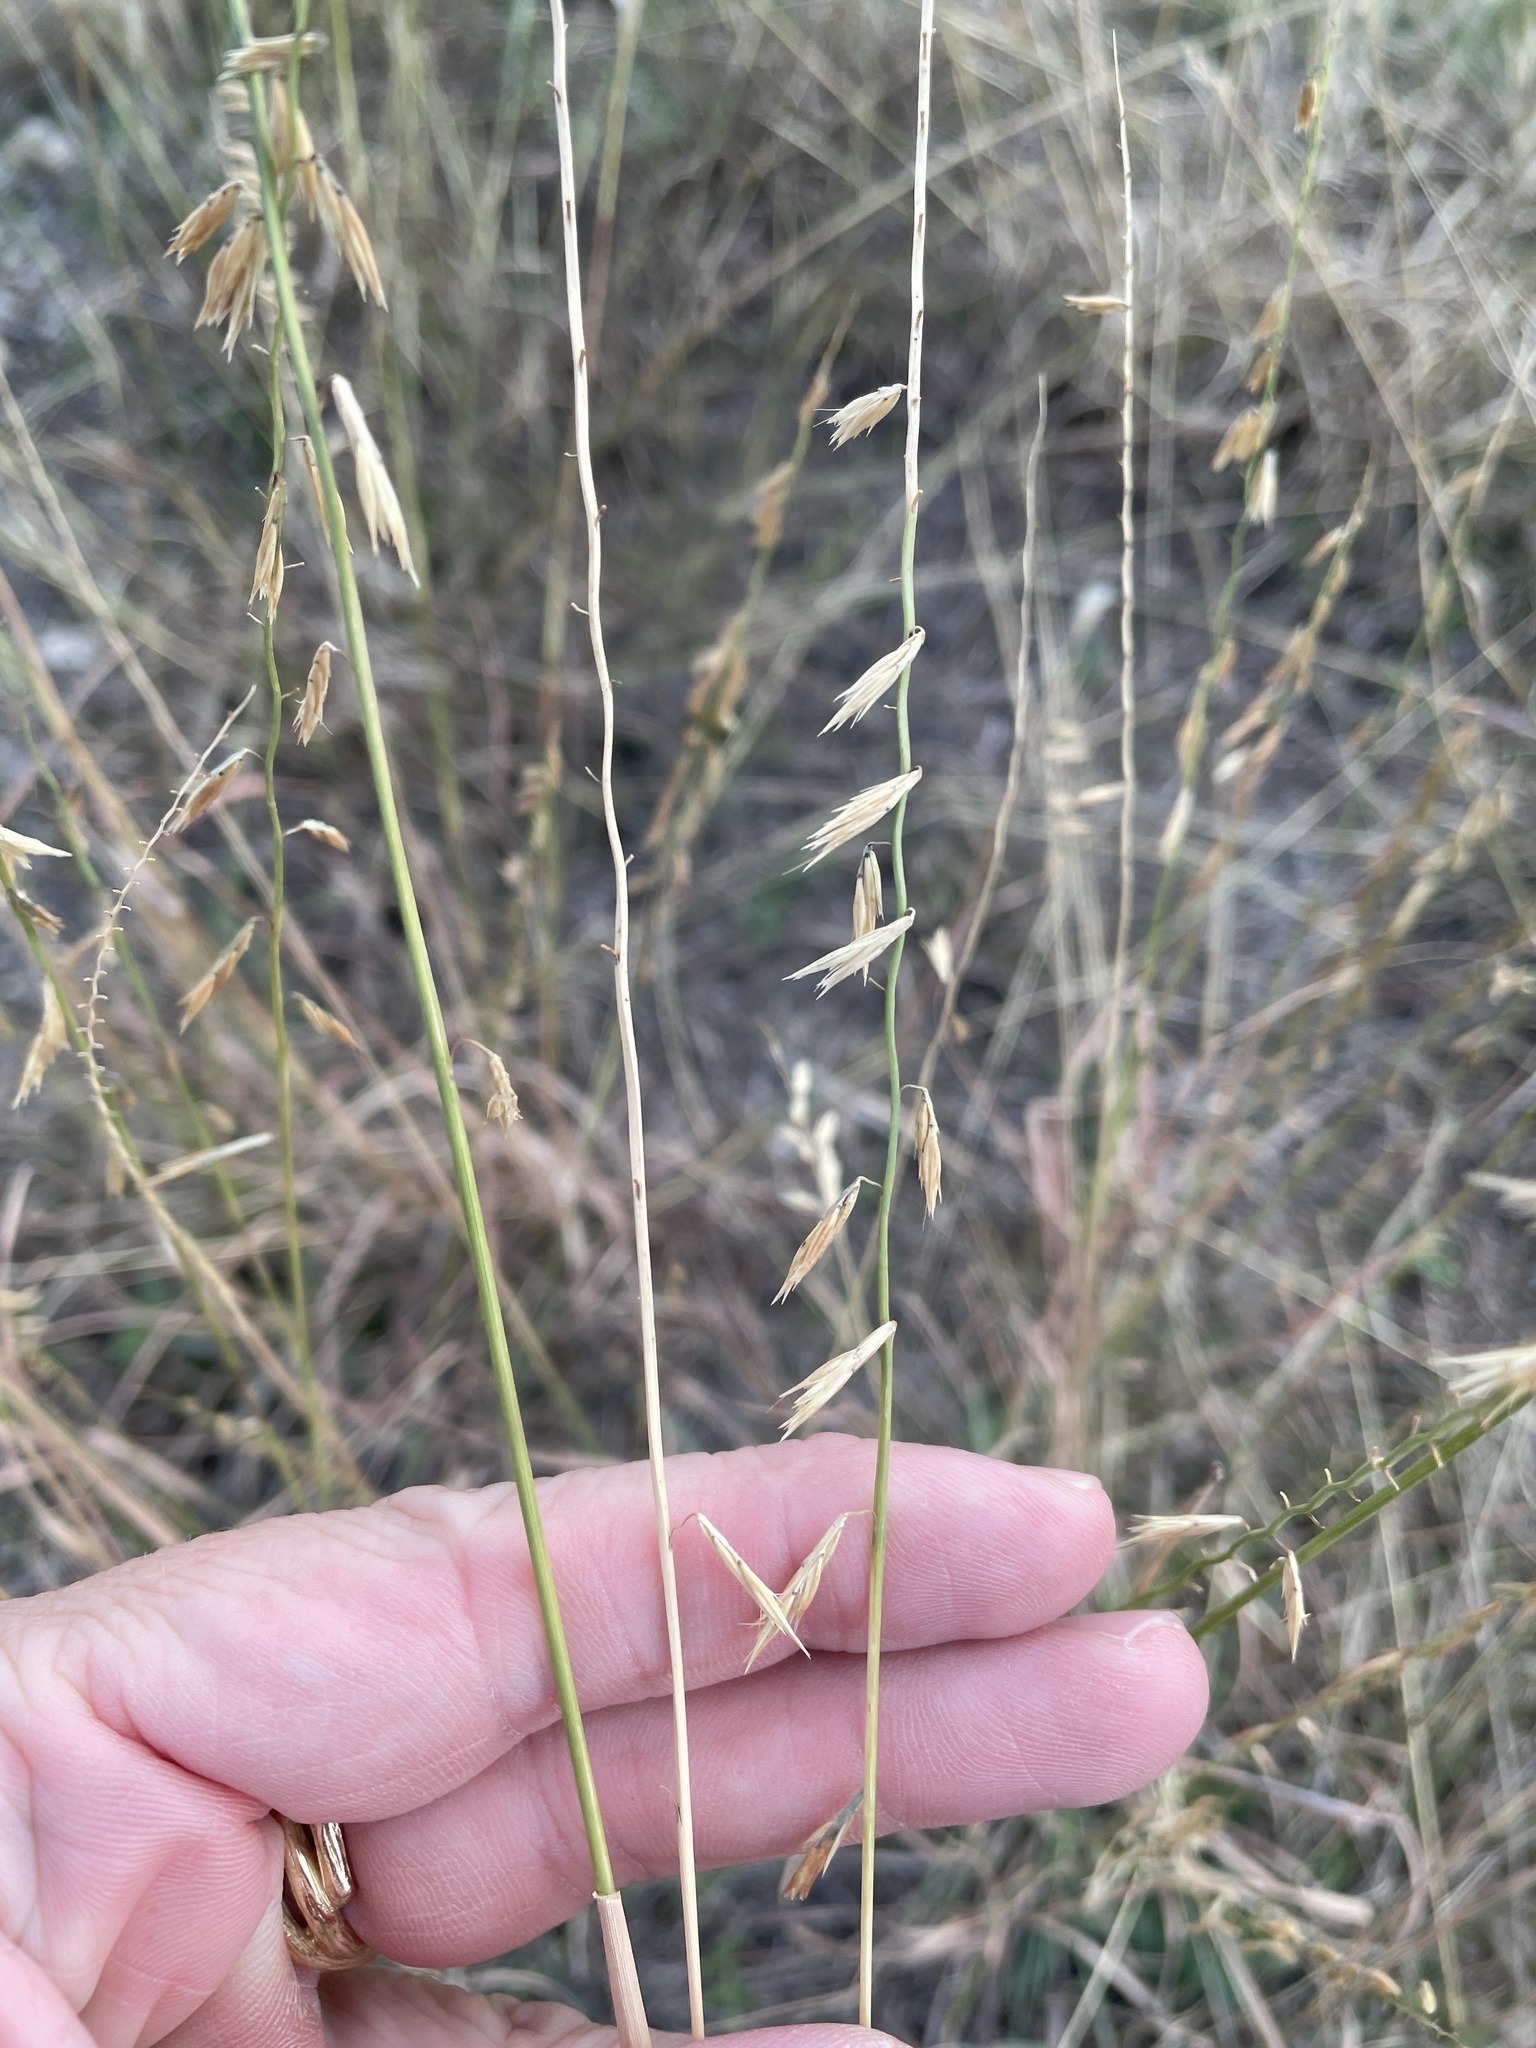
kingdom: Plantae
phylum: Tracheophyta
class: Liliopsida
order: Poales
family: Poaceae
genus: Bouteloua
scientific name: Bouteloua curtipendula
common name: Side-oats grama
